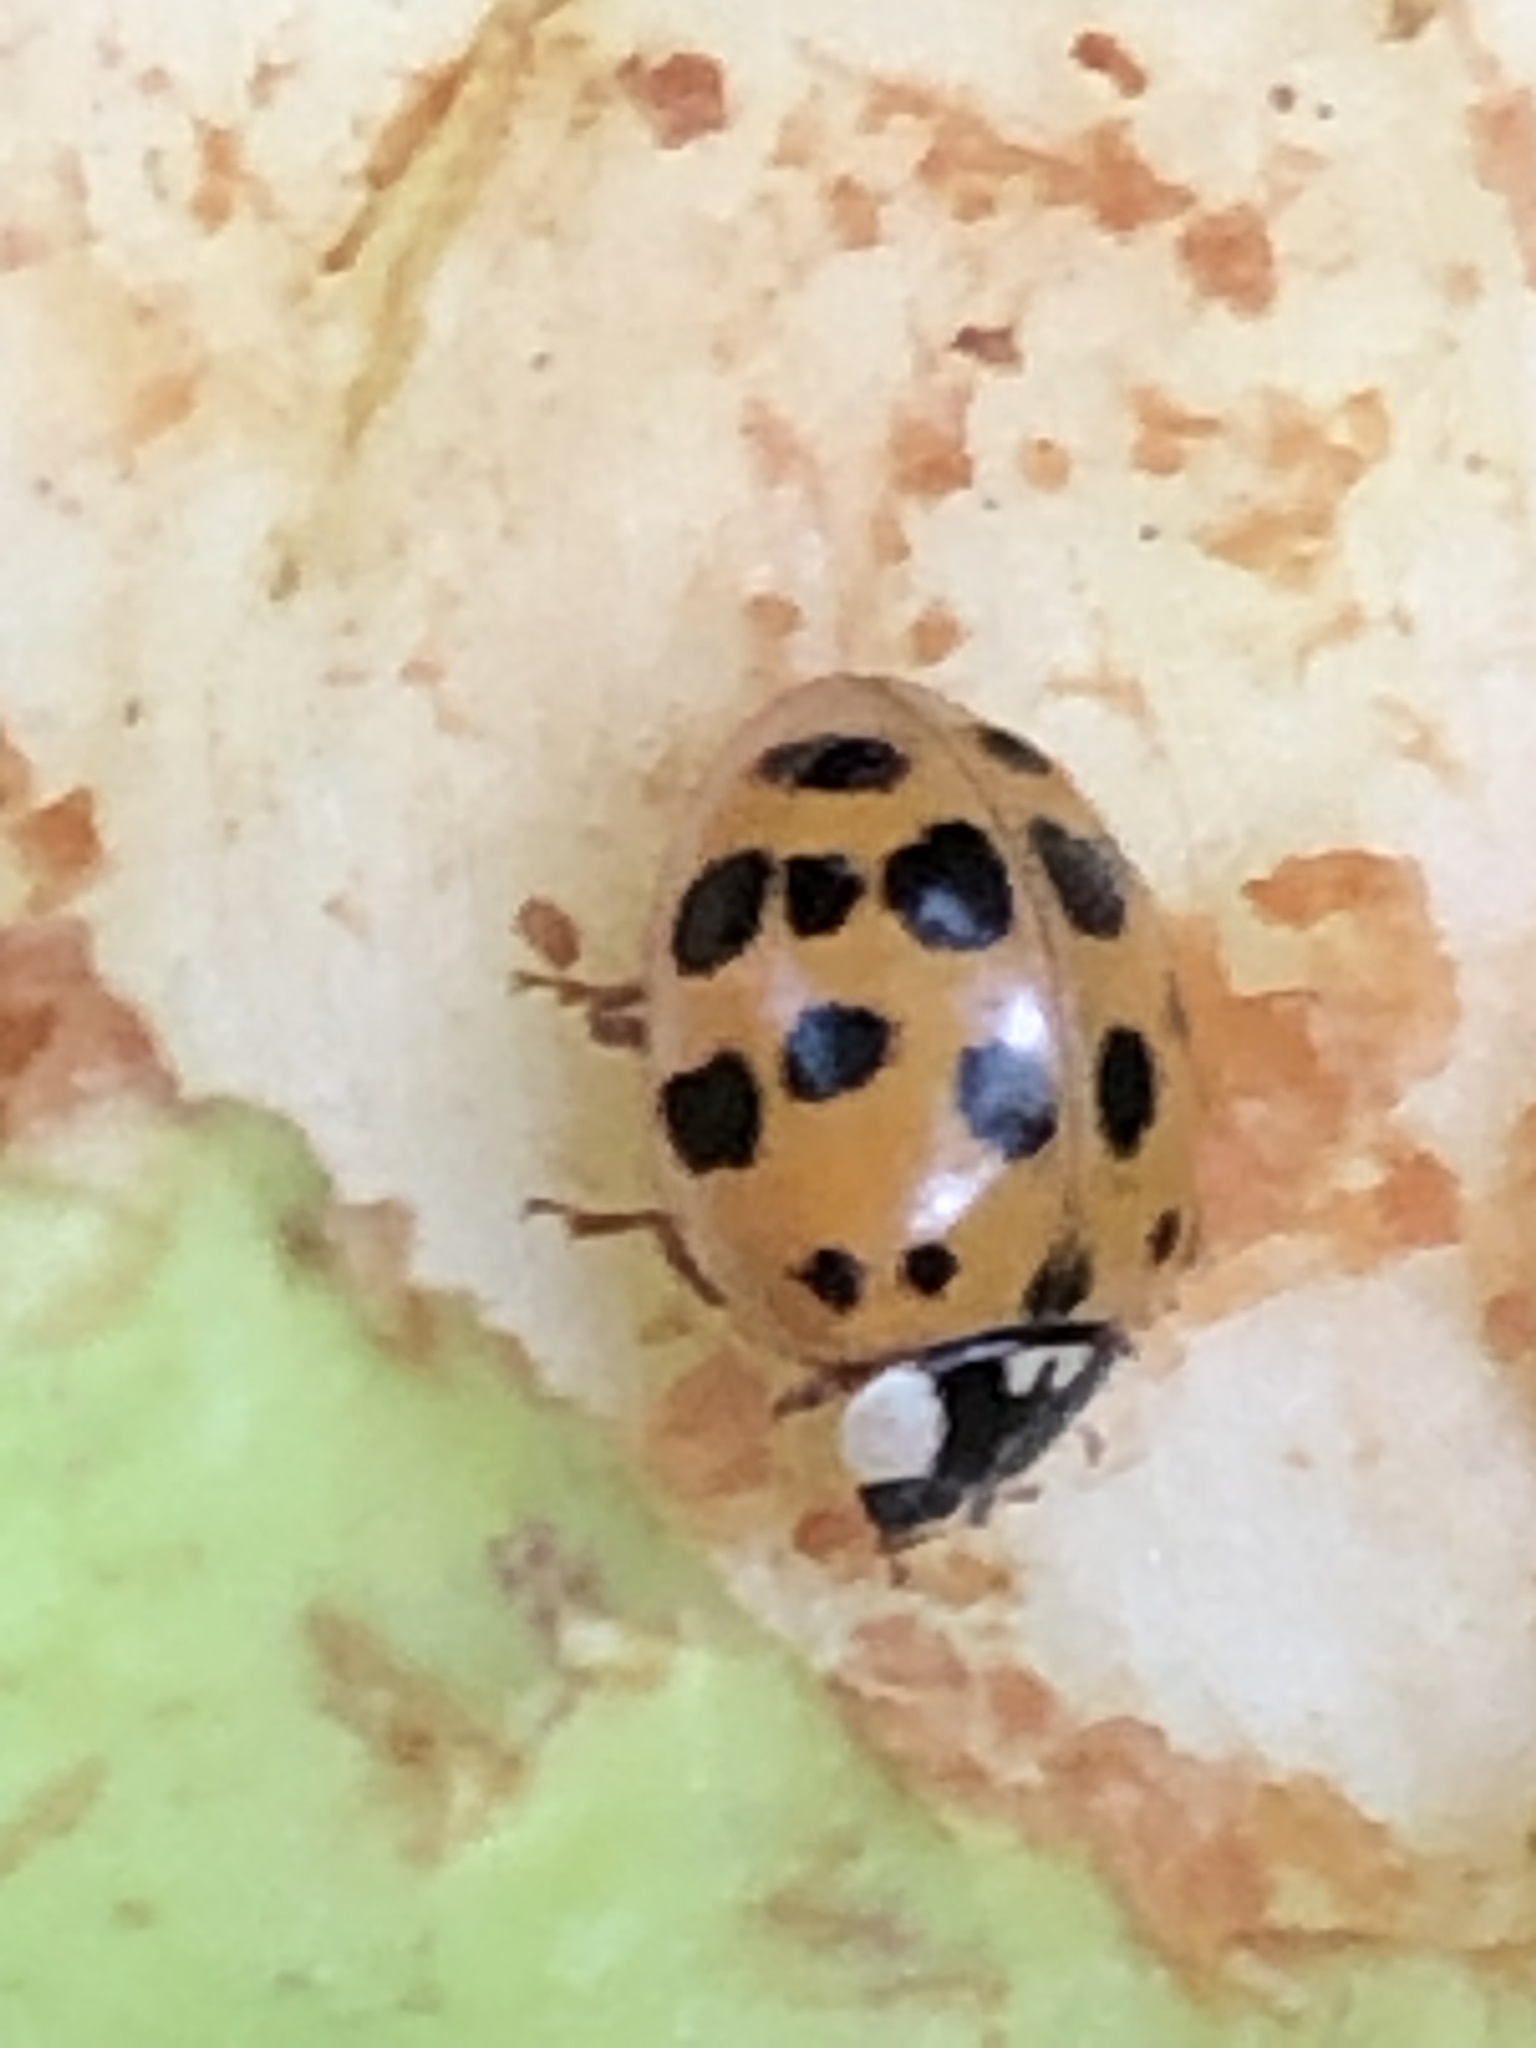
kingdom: Animalia
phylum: Arthropoda
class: Insecta
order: Coleoptera
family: Coccinellidae
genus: Harmonia
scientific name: Harmonia axyridis
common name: Harlequin ladybird
